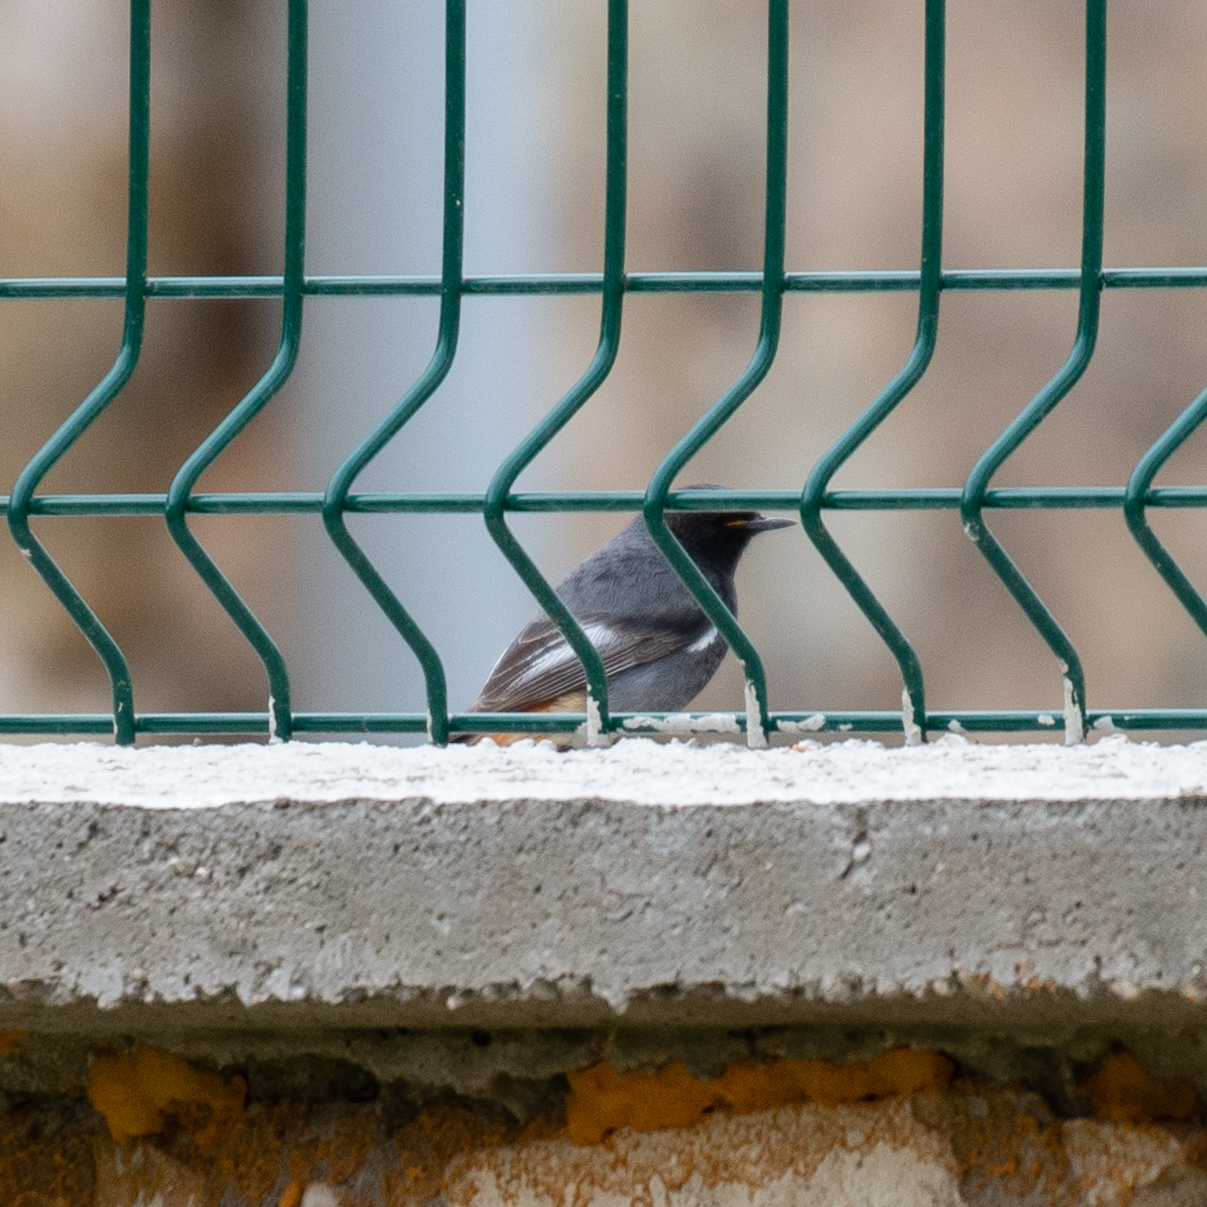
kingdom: Animalia
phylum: Chordata
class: Aves
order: Passeriformes
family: Muscicapidae
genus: Phoenicurus
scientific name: Phoenicurus ochruros
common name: Black redstart
